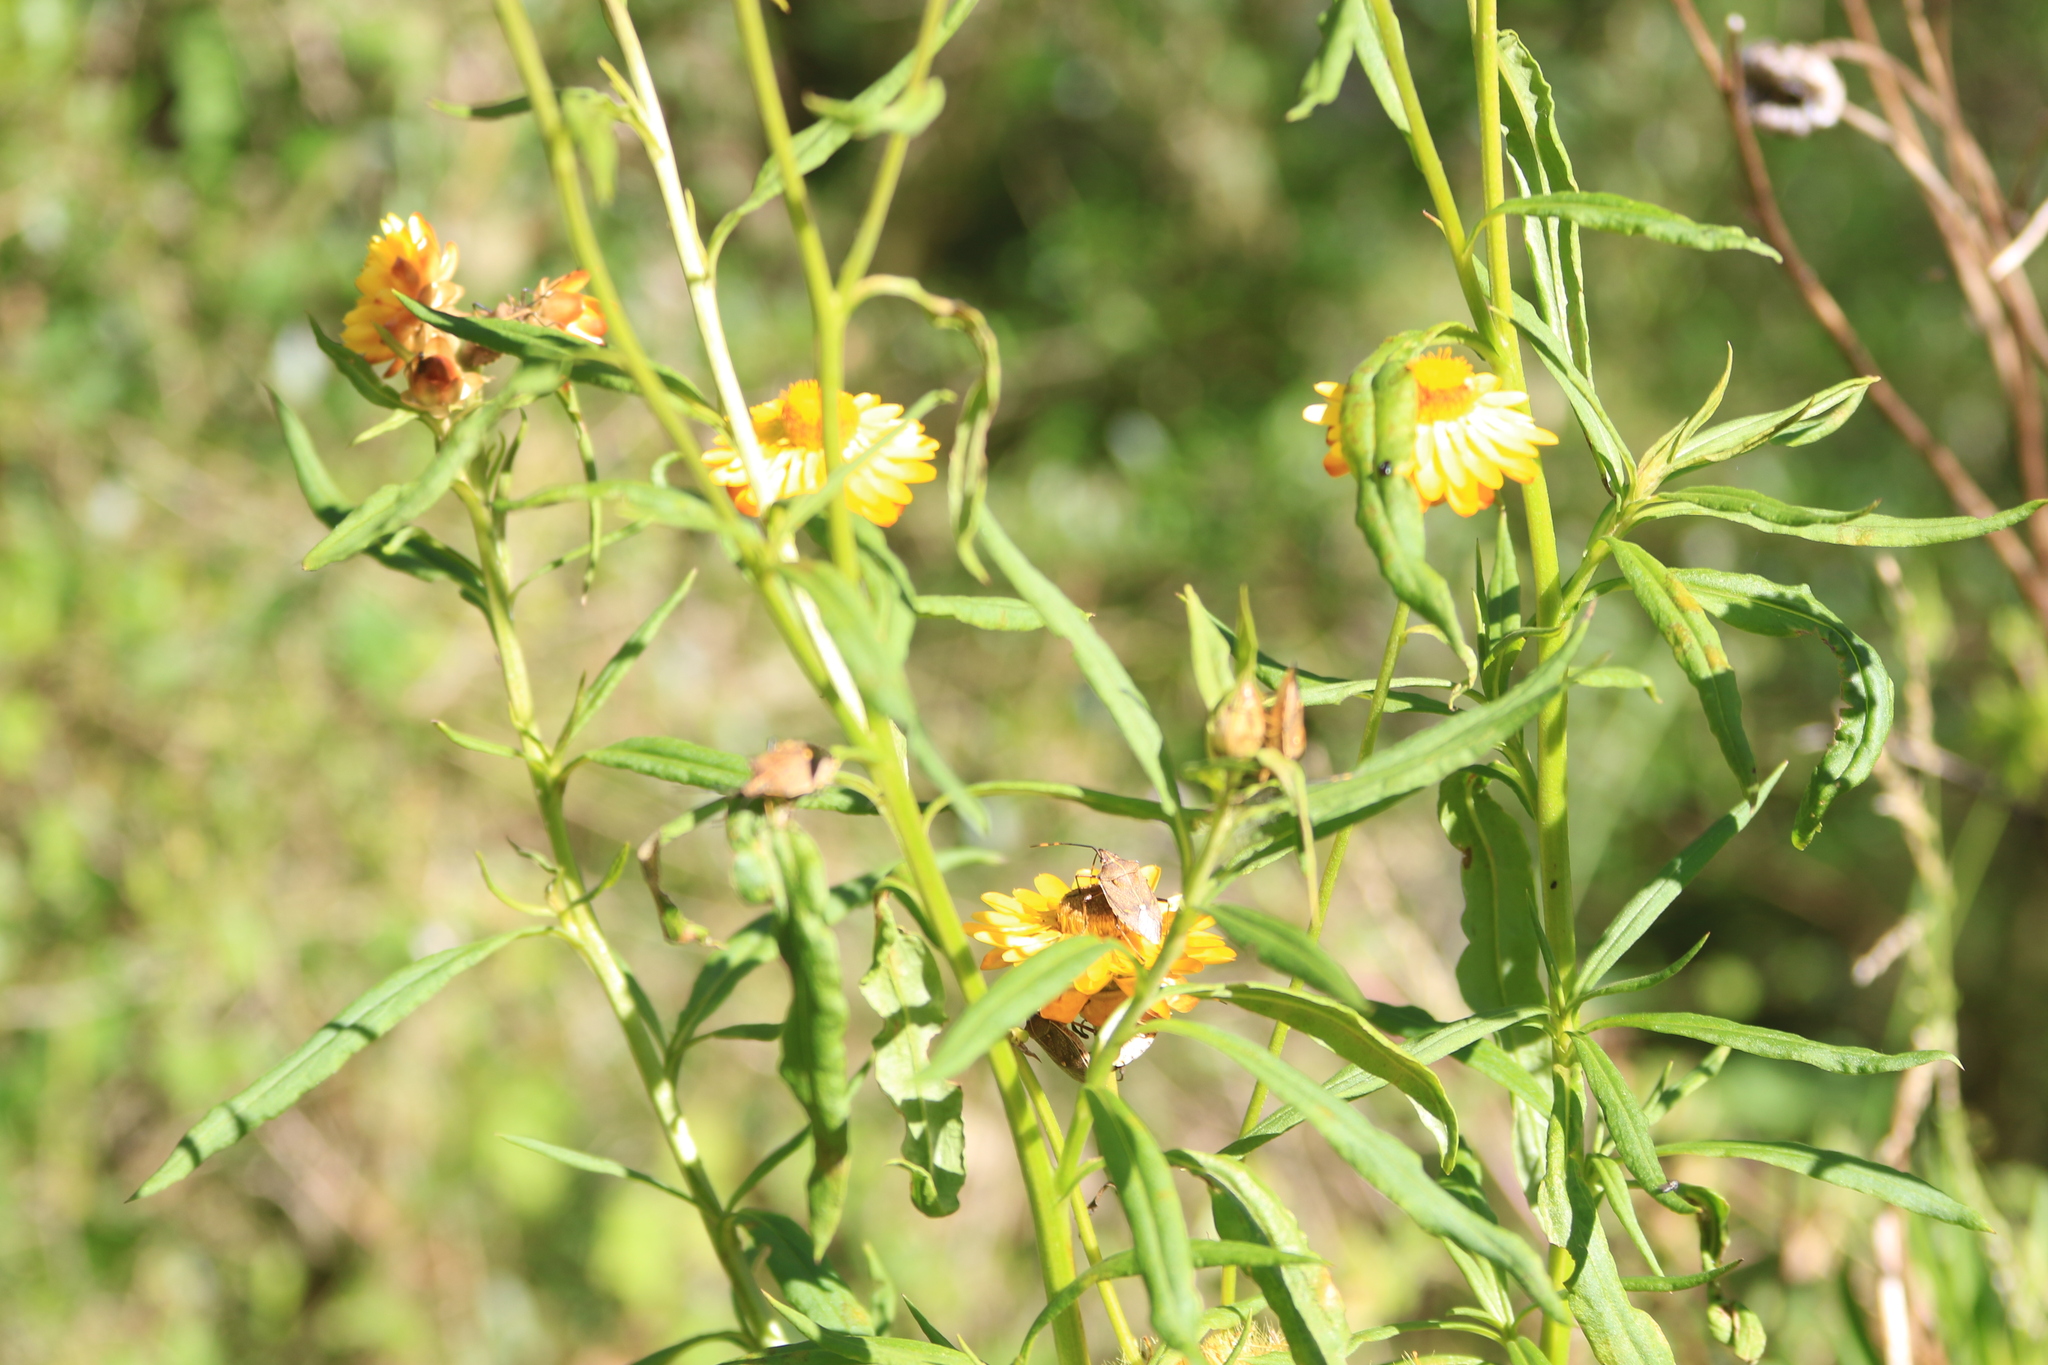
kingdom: Animalia
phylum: Arthropoda
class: Insecta
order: Hemiptera
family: Pentatomidae
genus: Omyta
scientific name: Omyta centrolineata
